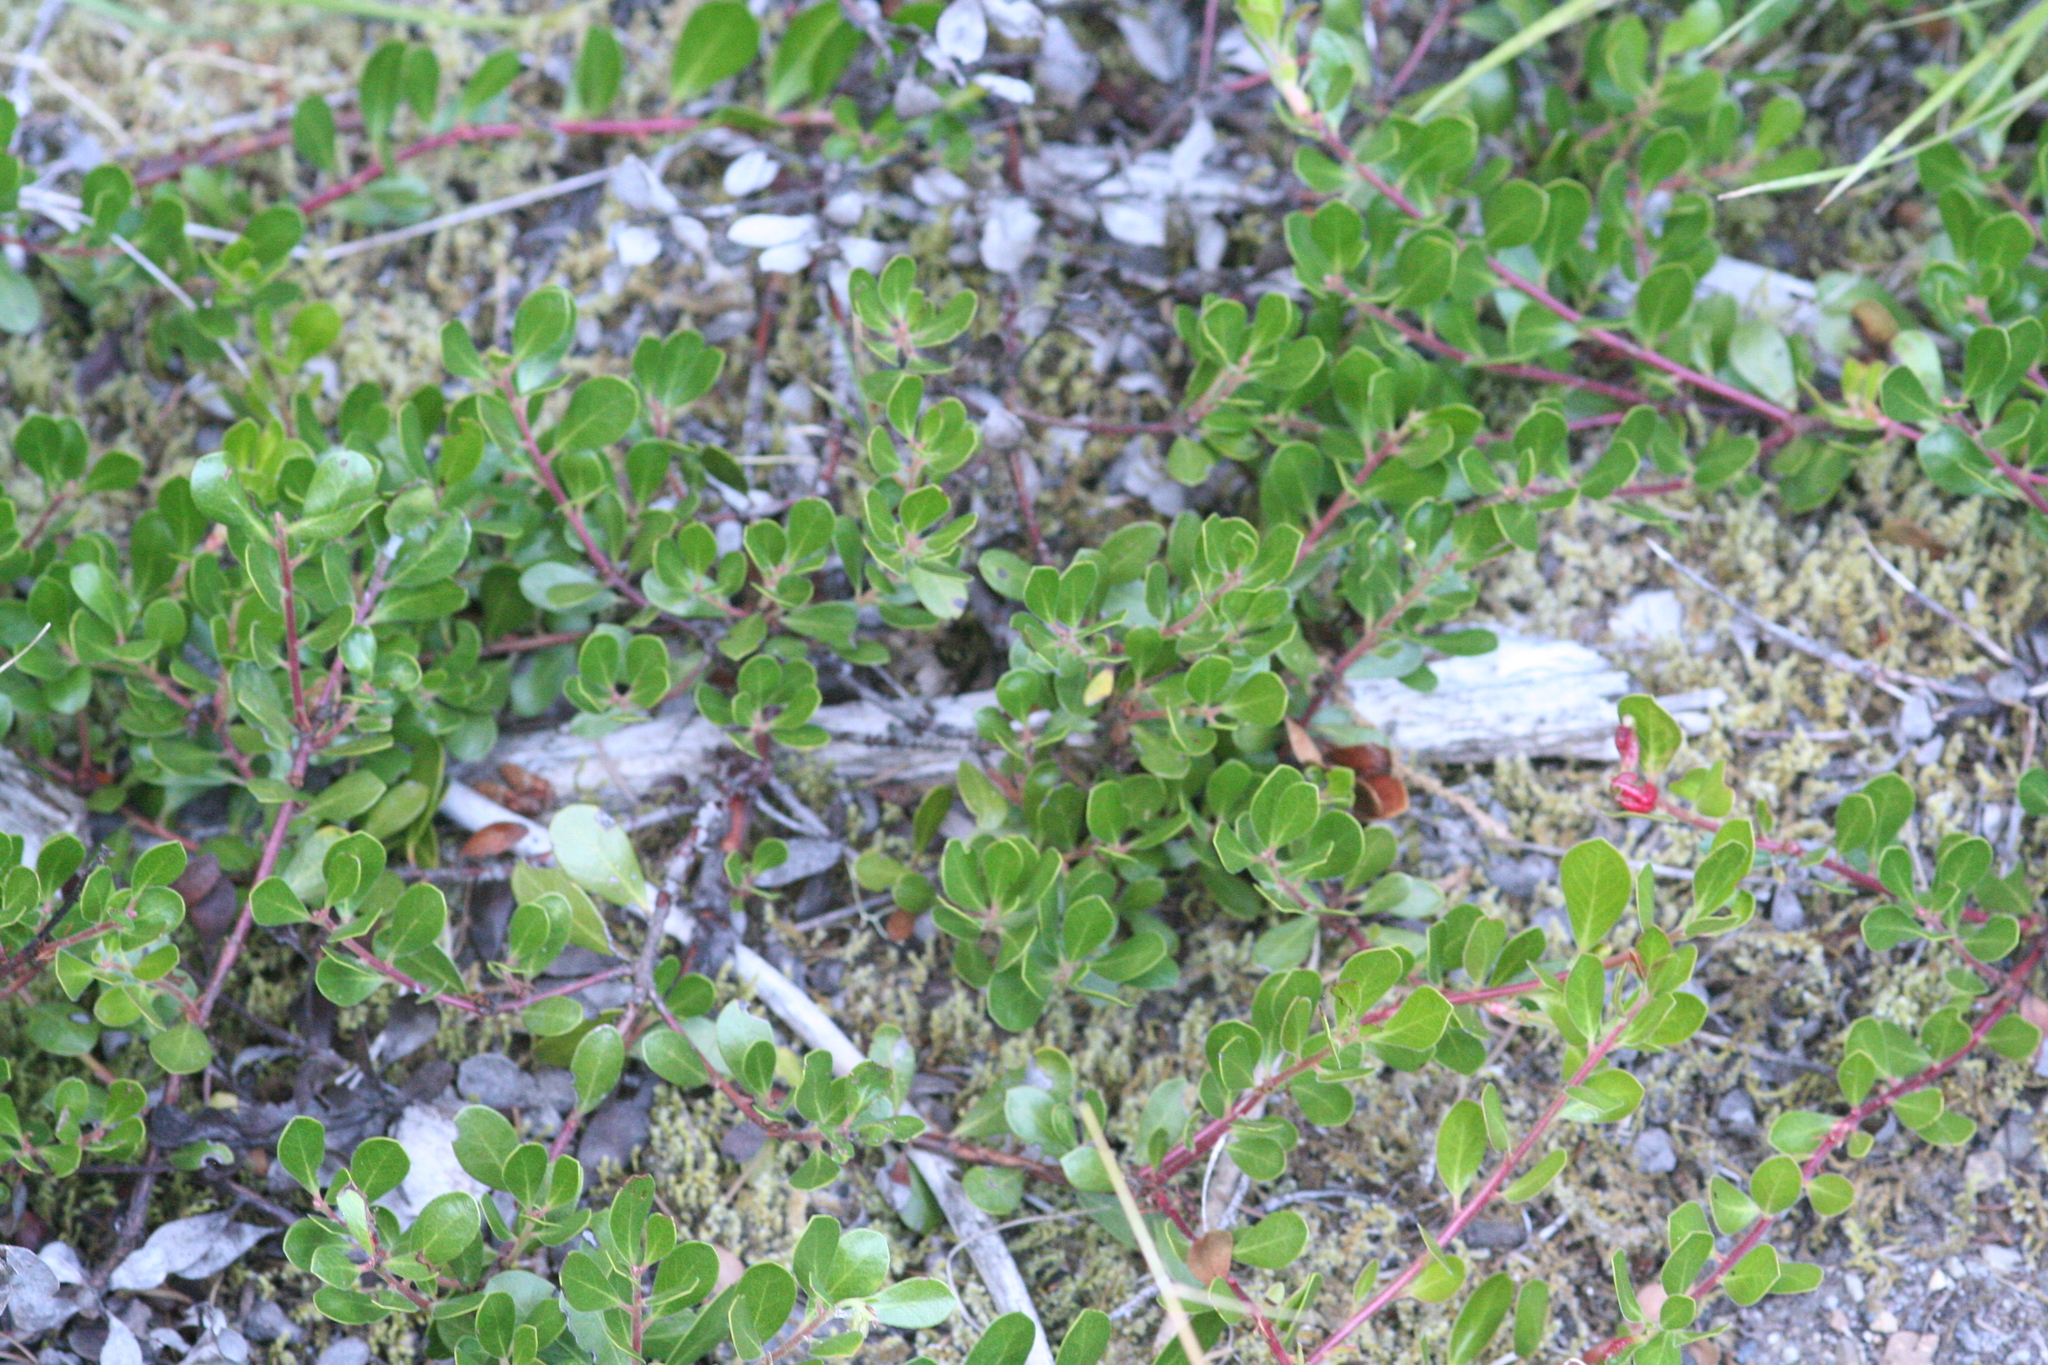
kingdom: Plantae
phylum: Tracheophyta
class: Magnoliopsida
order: Ericales
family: Ericaceae
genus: Arctostaphylos
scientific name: Arctostaphylos uva-ursi
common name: Bearberry
